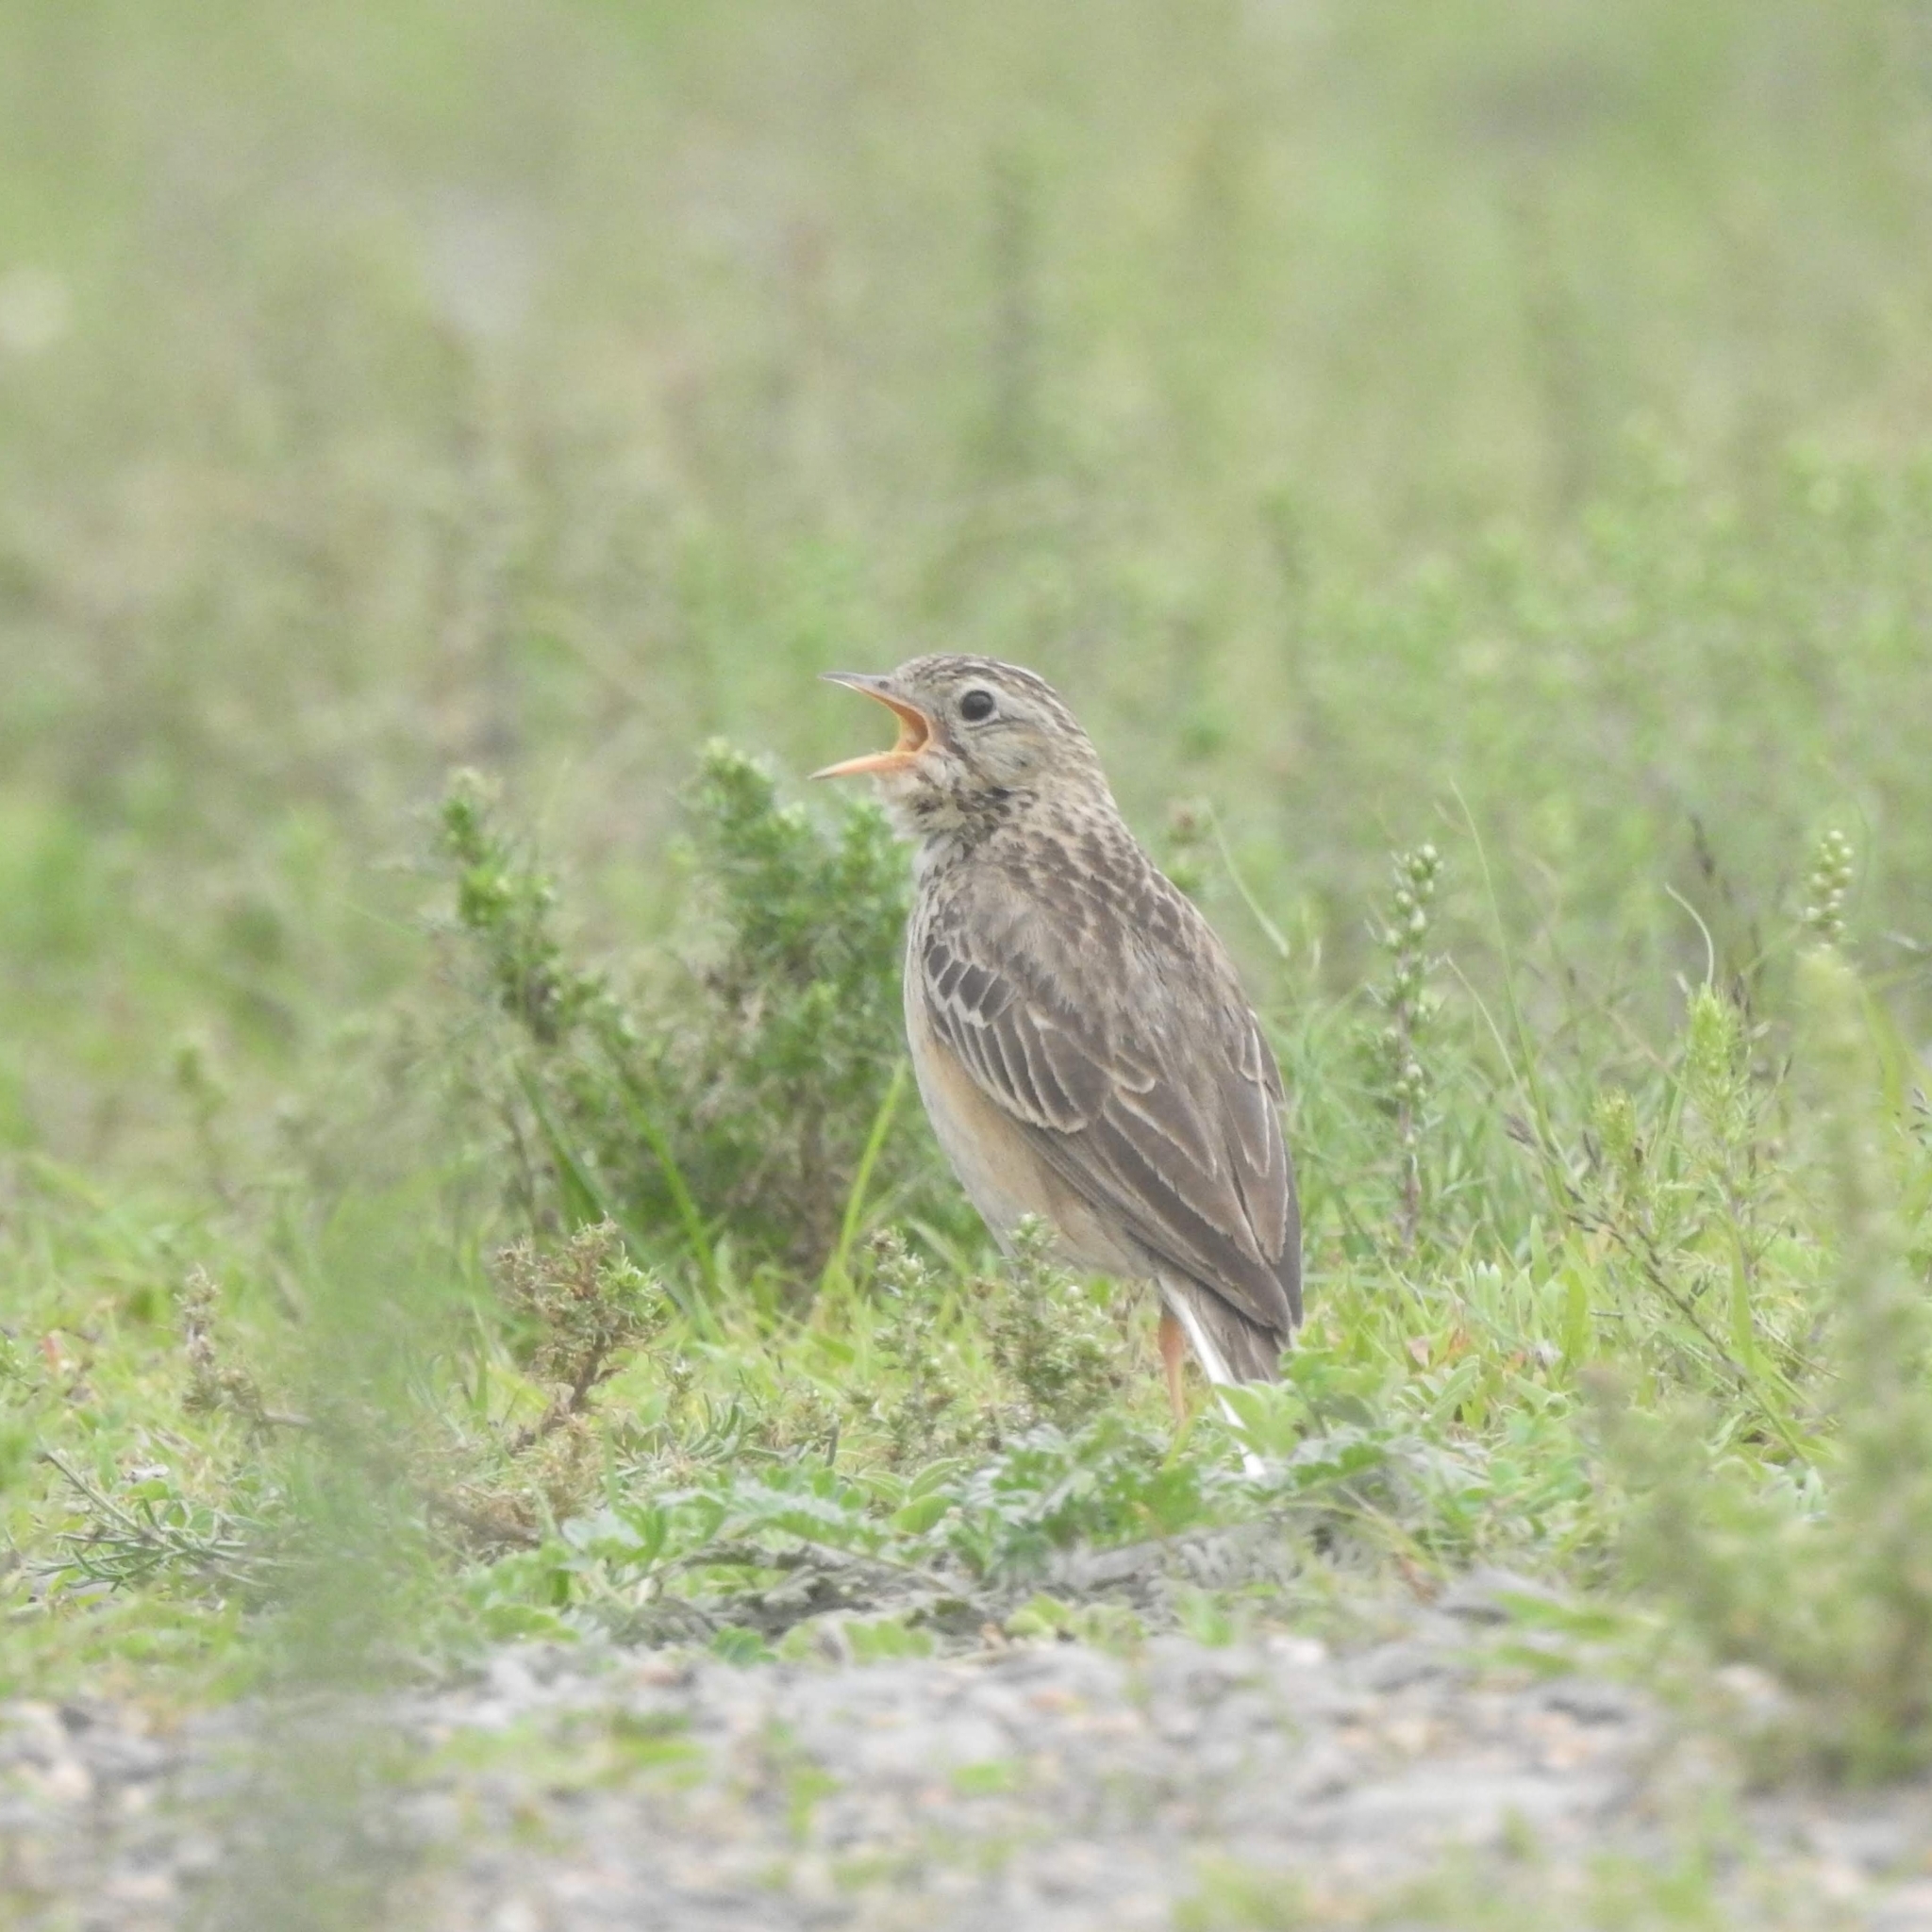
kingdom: Animalia
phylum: Chordata
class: Aves
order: Passeriformes
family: Motacillidae
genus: Anthus
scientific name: Anthus godlewskii
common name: Blyth's pipit
